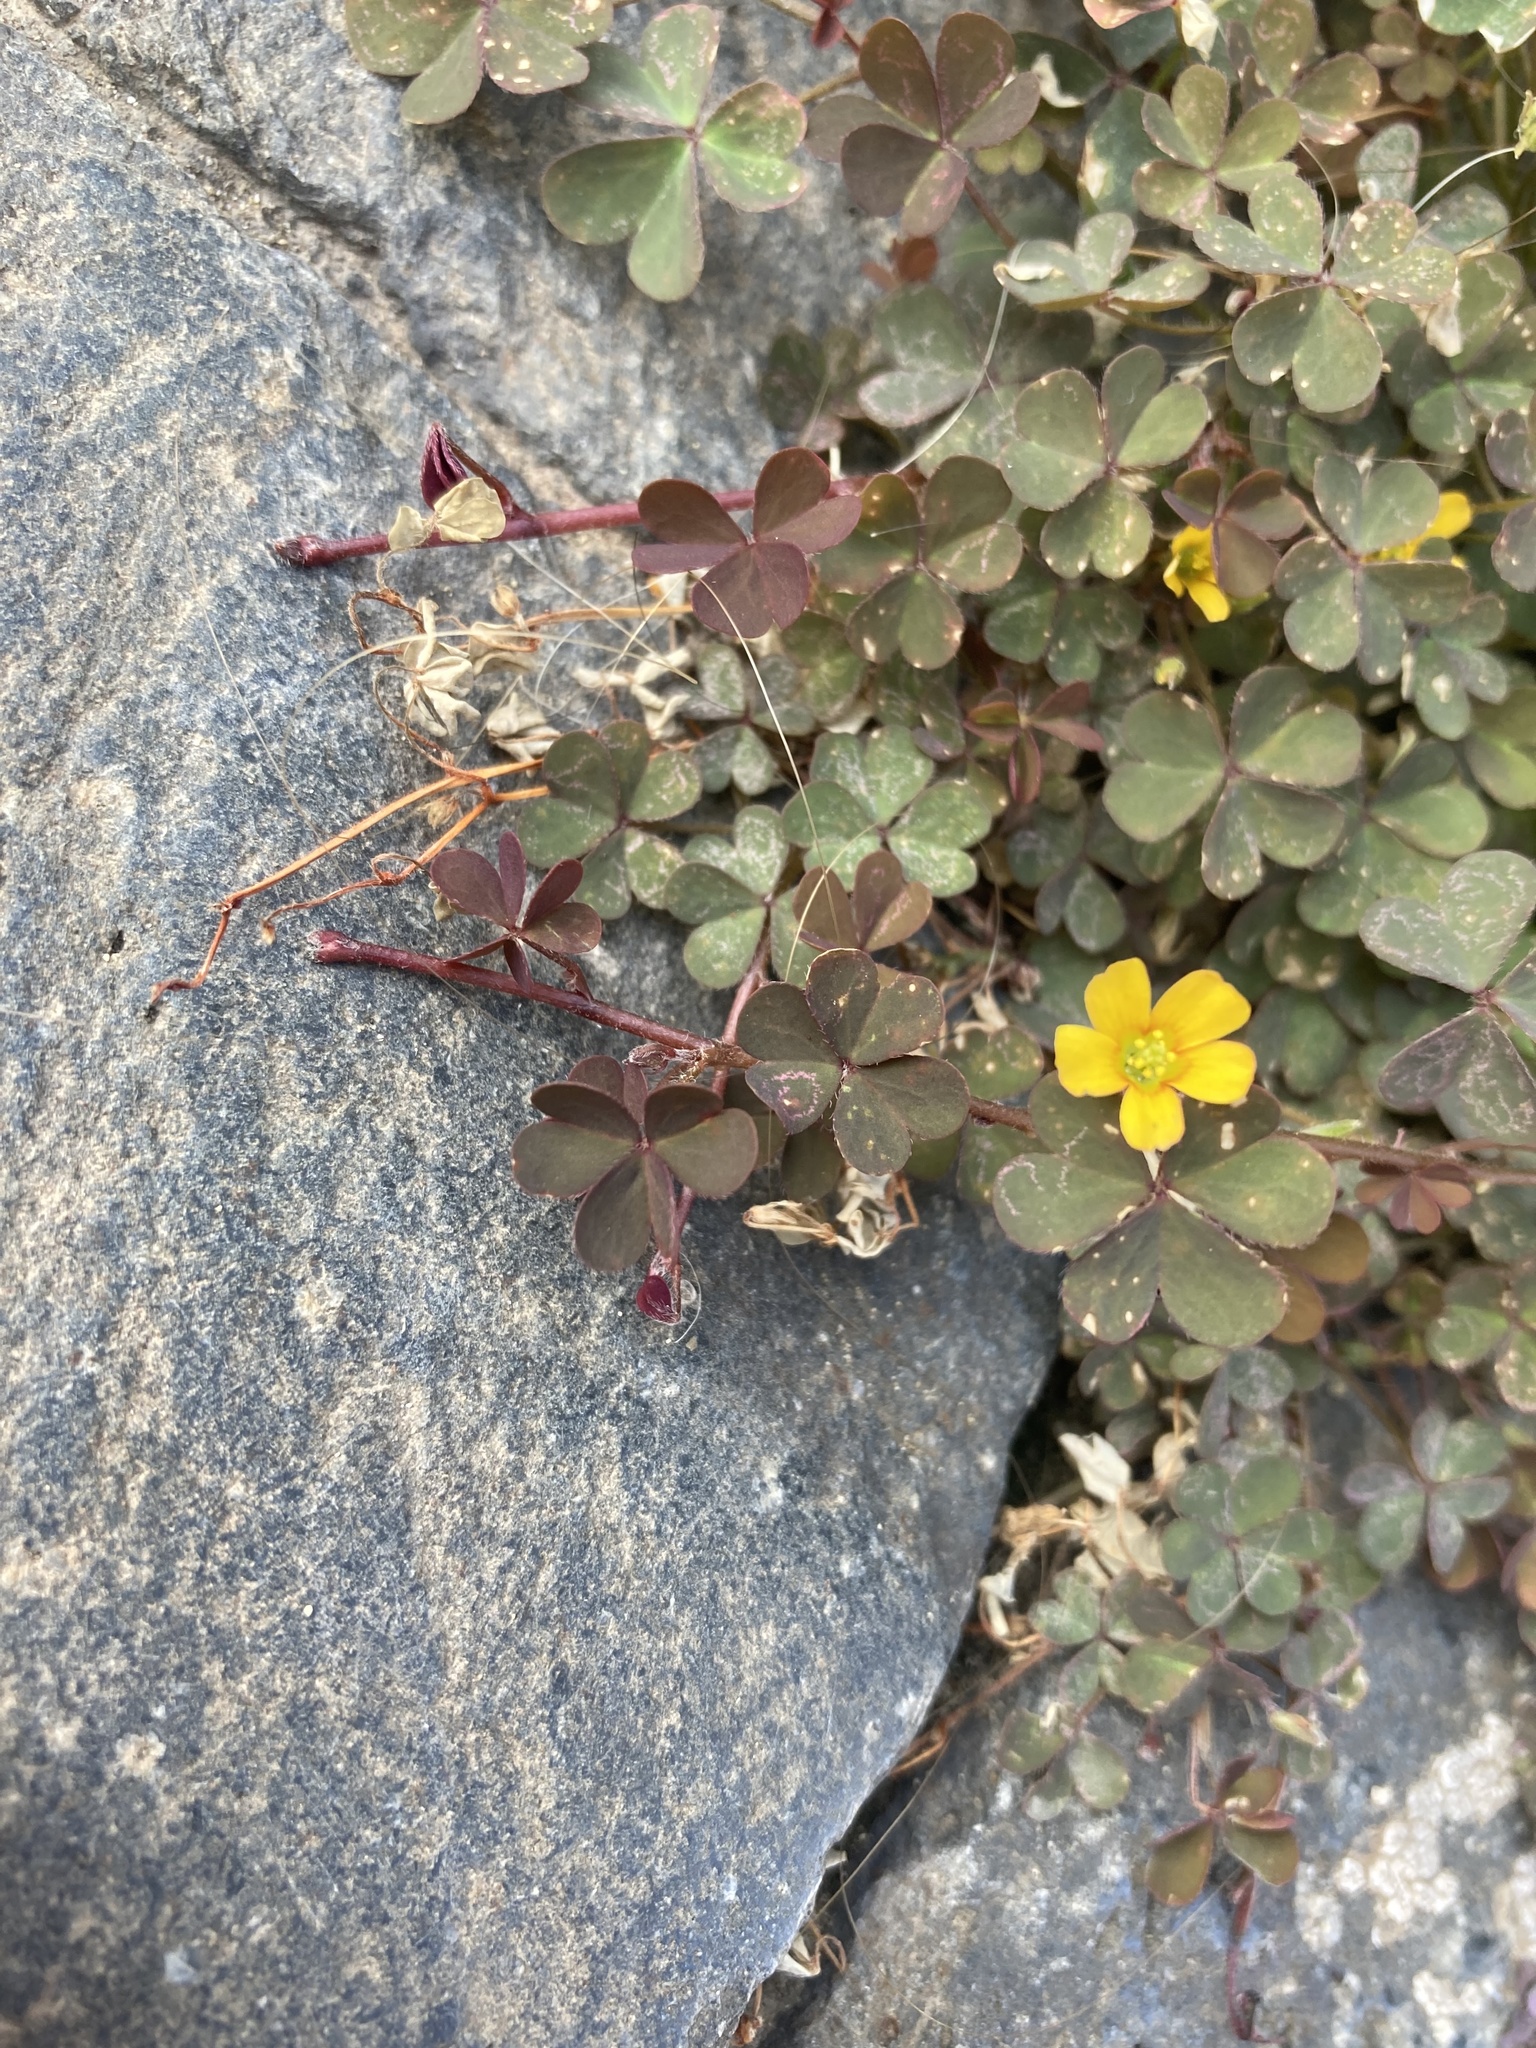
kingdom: Plantae
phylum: Tracheophyta
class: Magnoliopsida
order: Oxalidales
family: Oxalidaceae
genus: Oxalis
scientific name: Oxalis corniculata
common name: Procumbent yellow-sorrel
